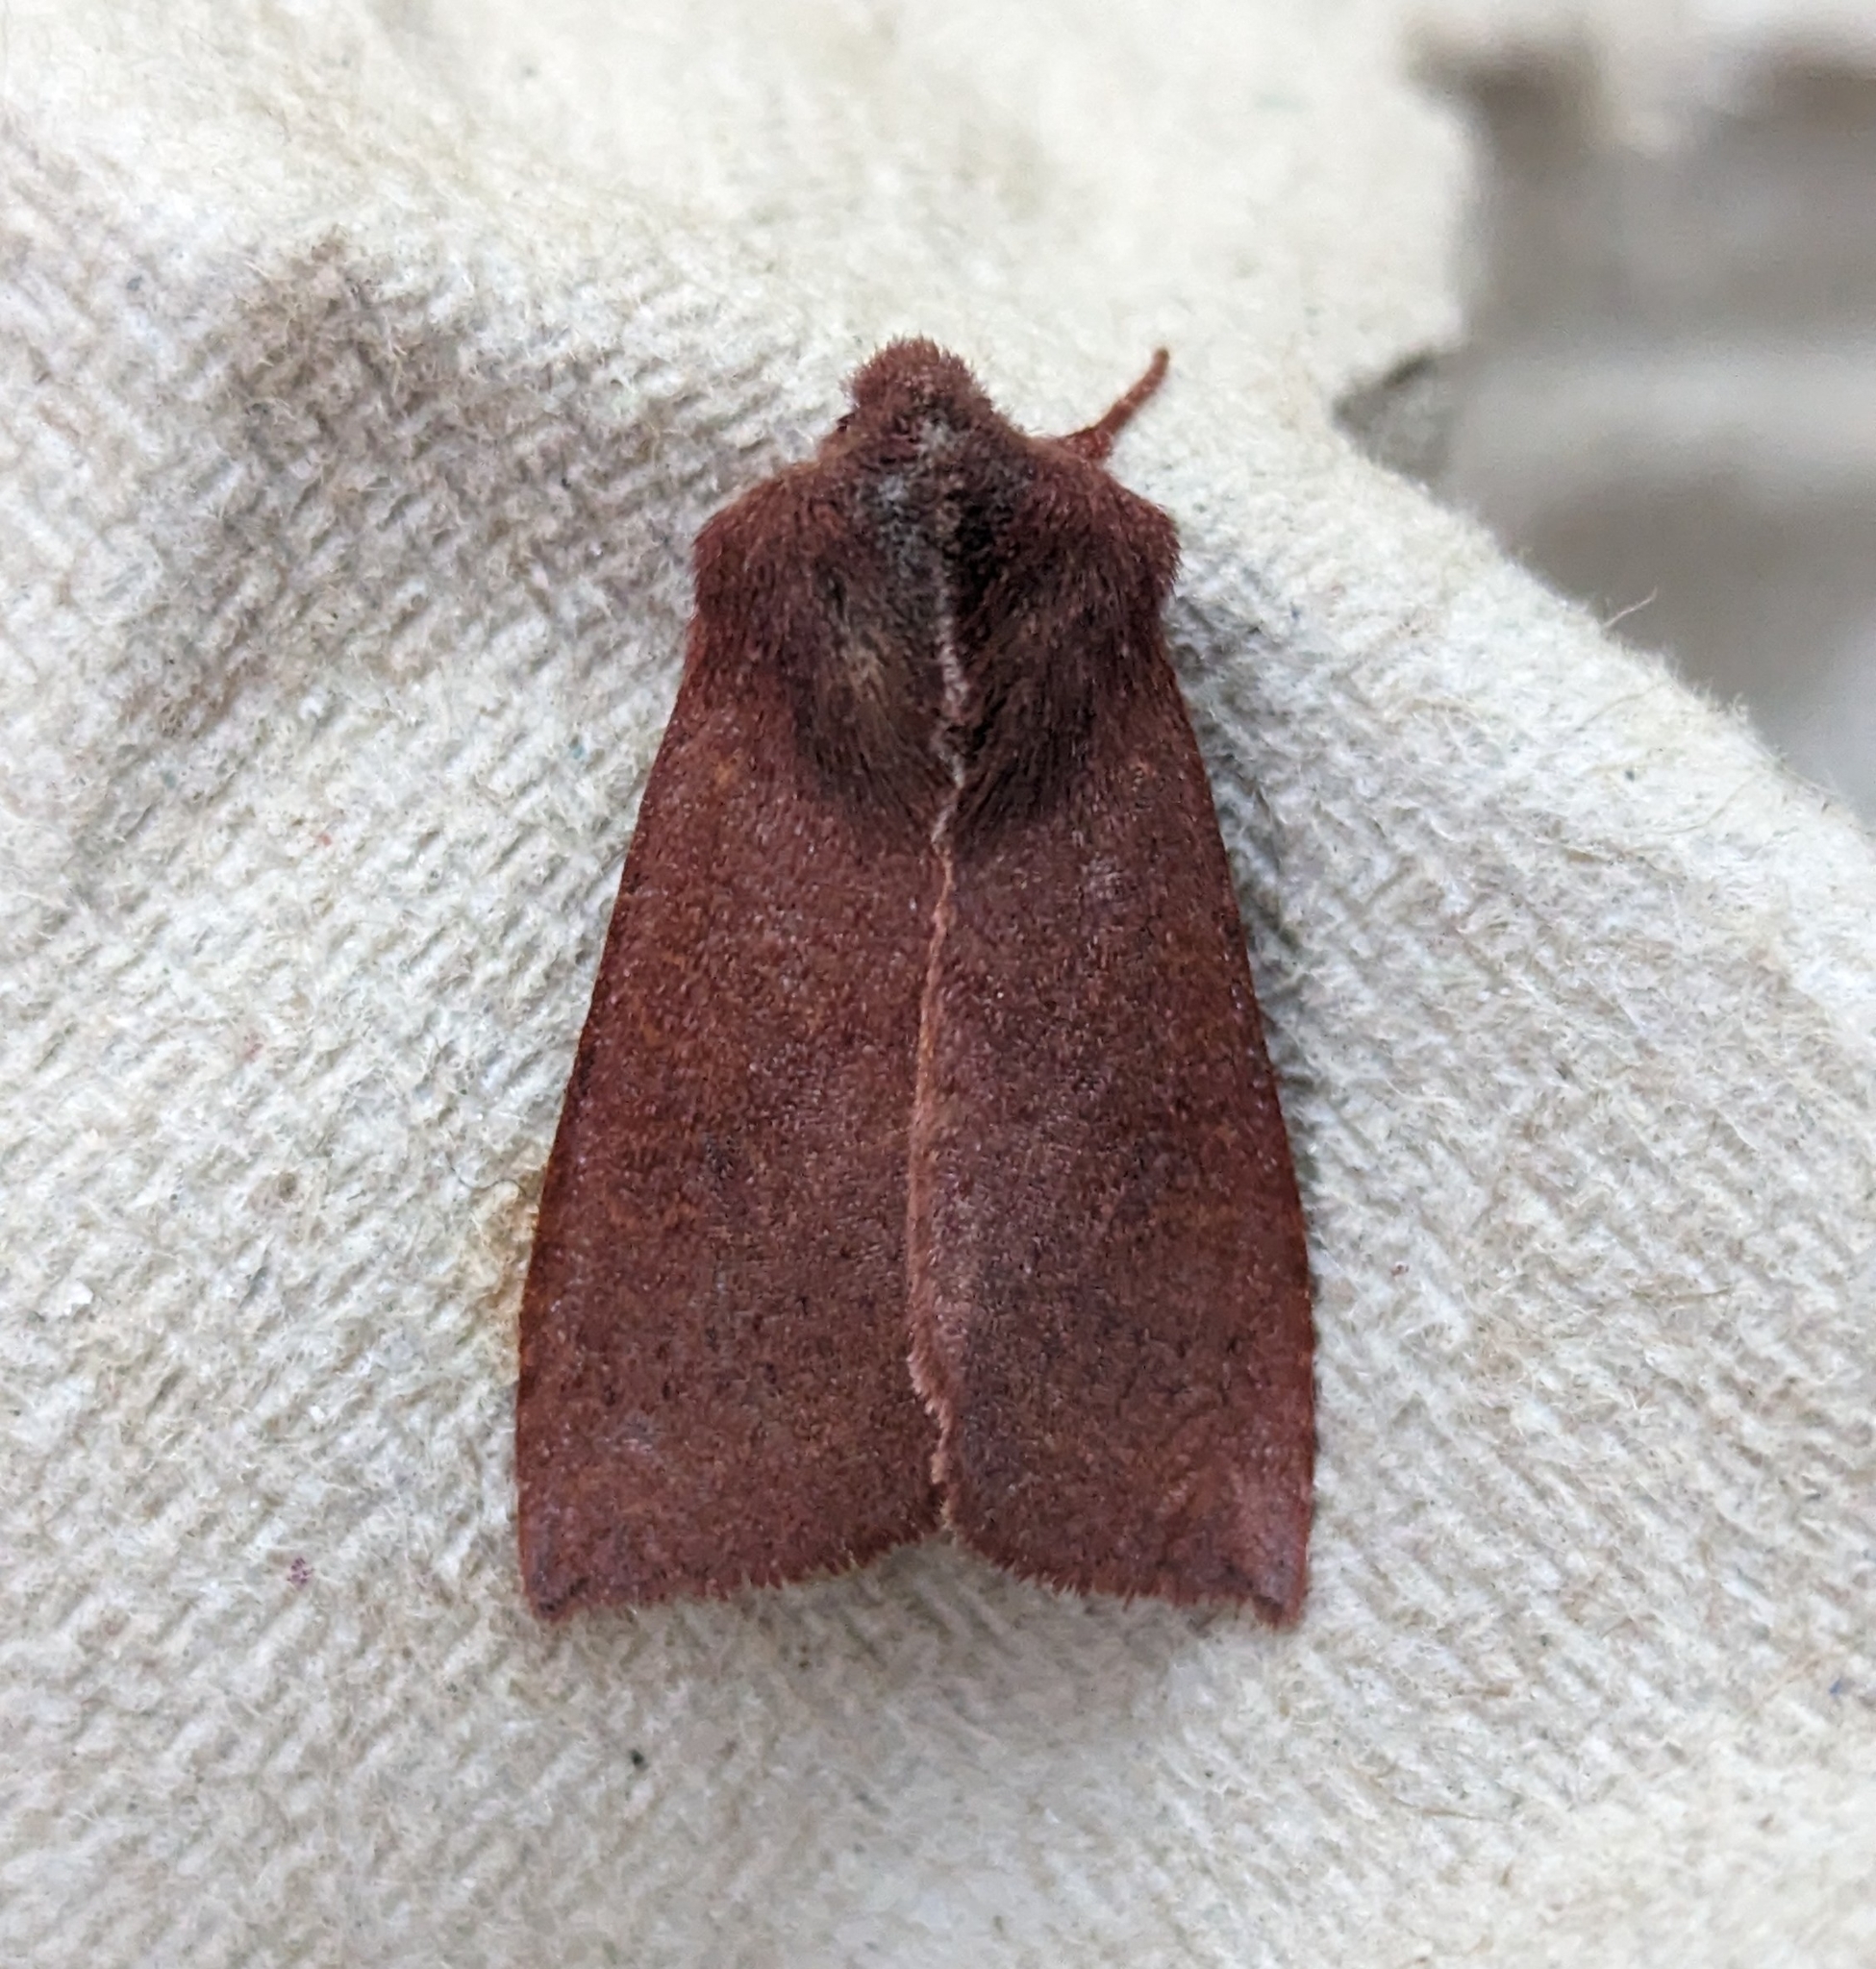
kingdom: Animalia
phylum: Arthropoda
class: Insecta
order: Lepidoptera
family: Noctuidae
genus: Orthosia
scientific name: Orthosia transparens
